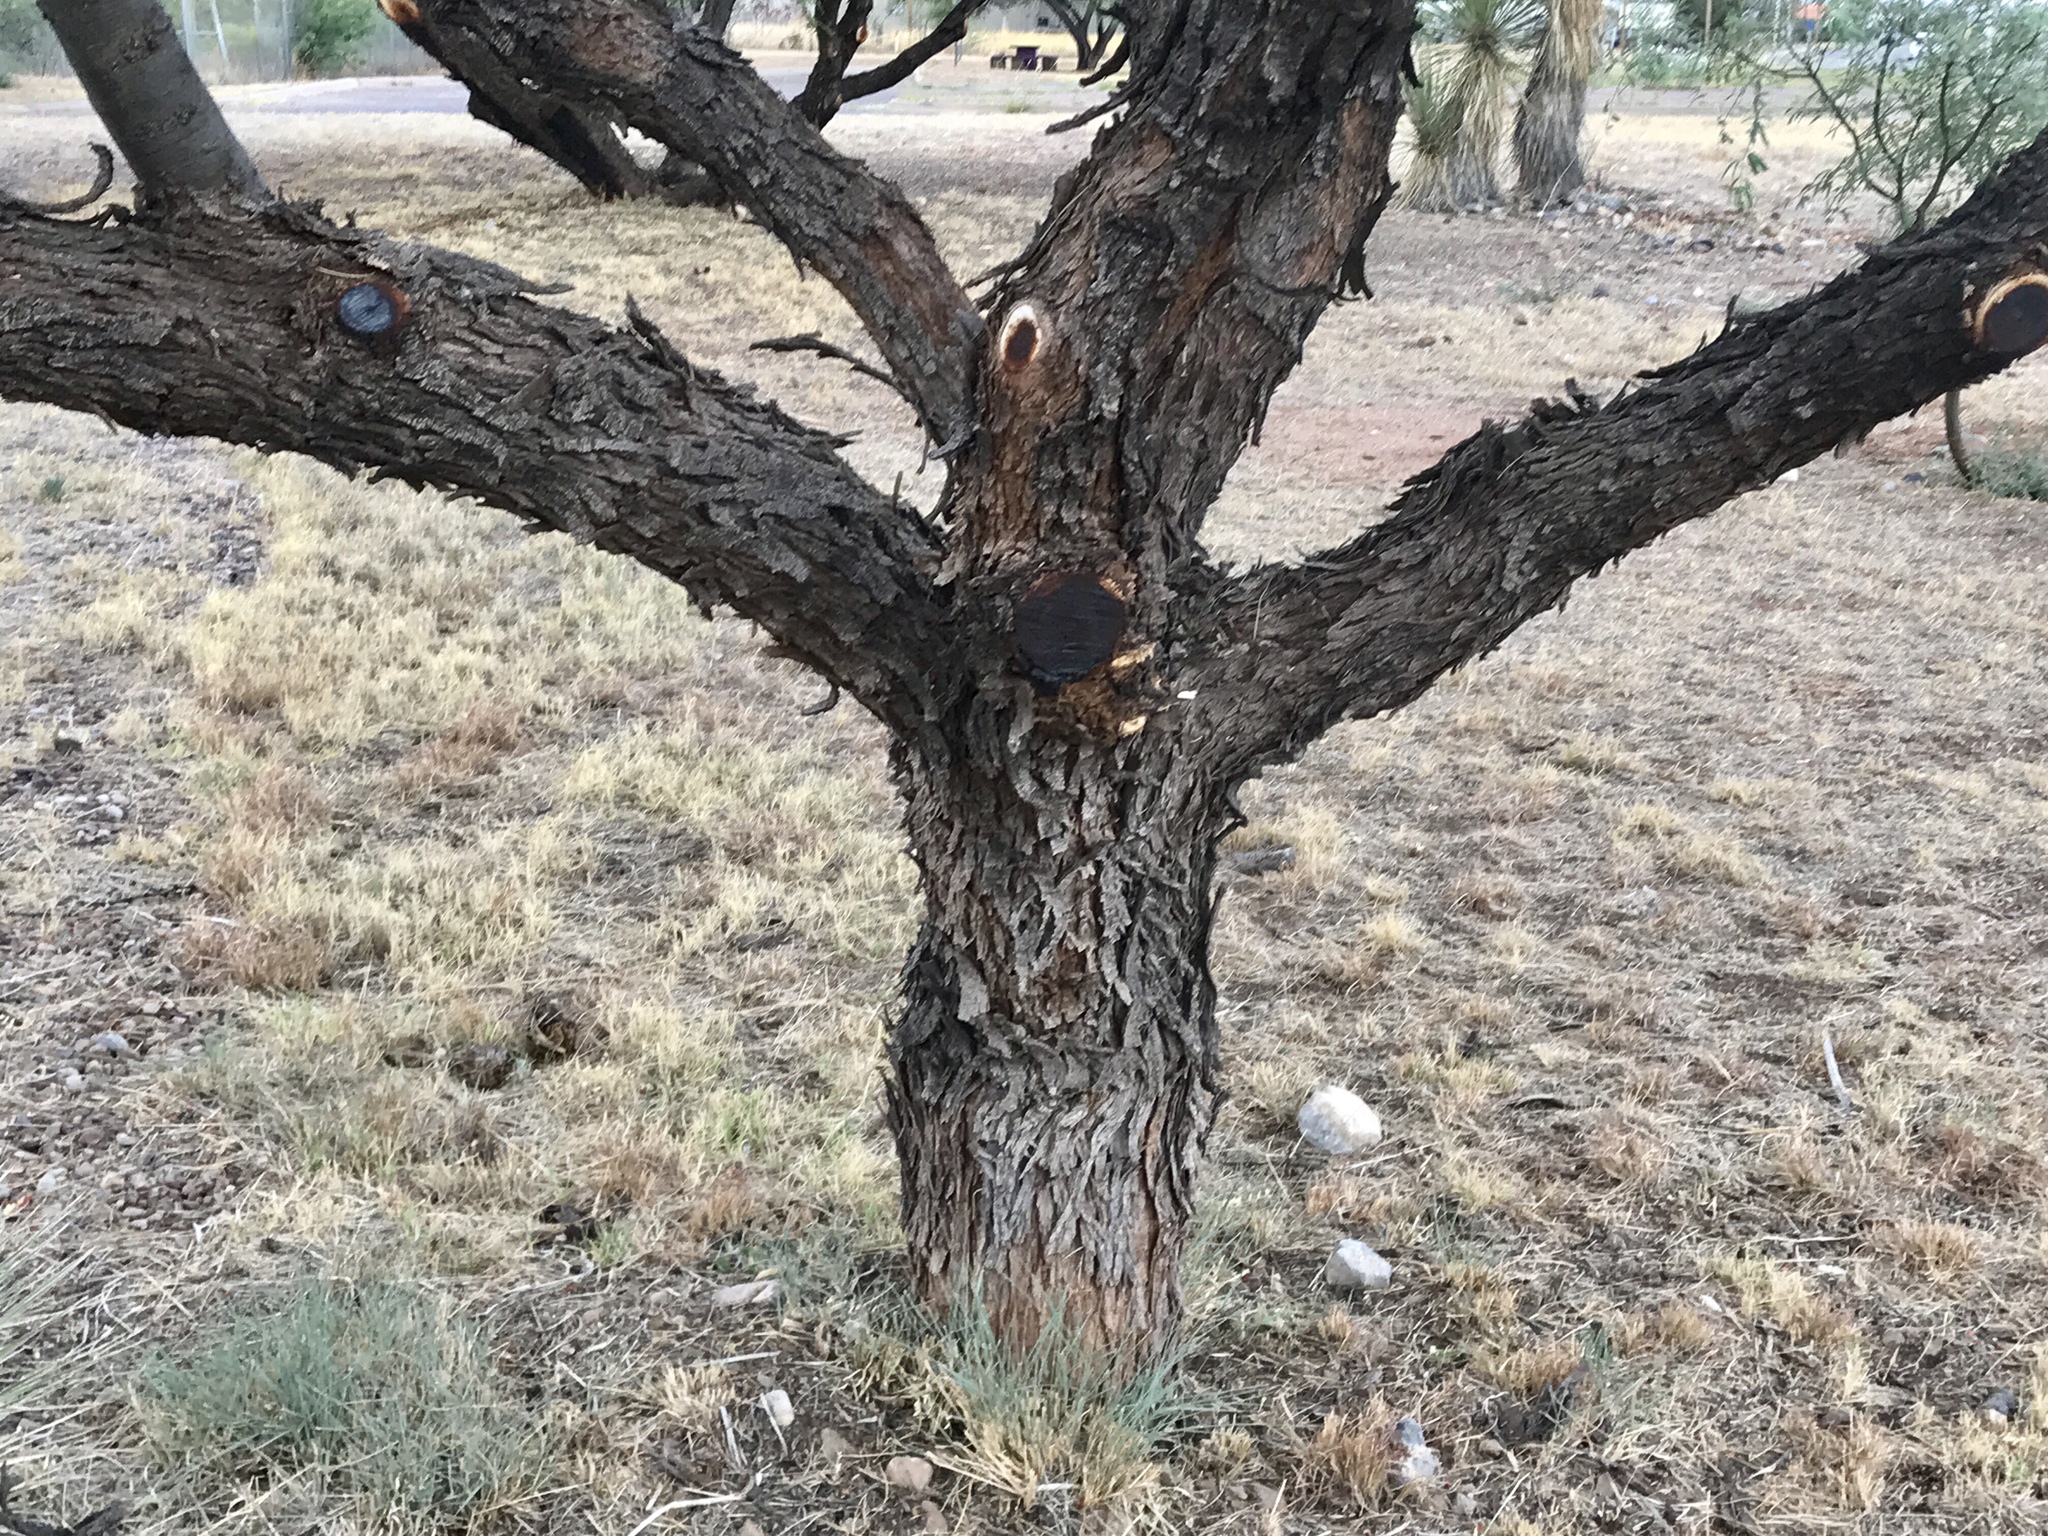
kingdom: Plantae
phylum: Tracheophyta
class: Magnoliopsida
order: Fabales
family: Fabaceae
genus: Prosopis
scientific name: Prosopis glandulosa
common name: Honey mesquite
